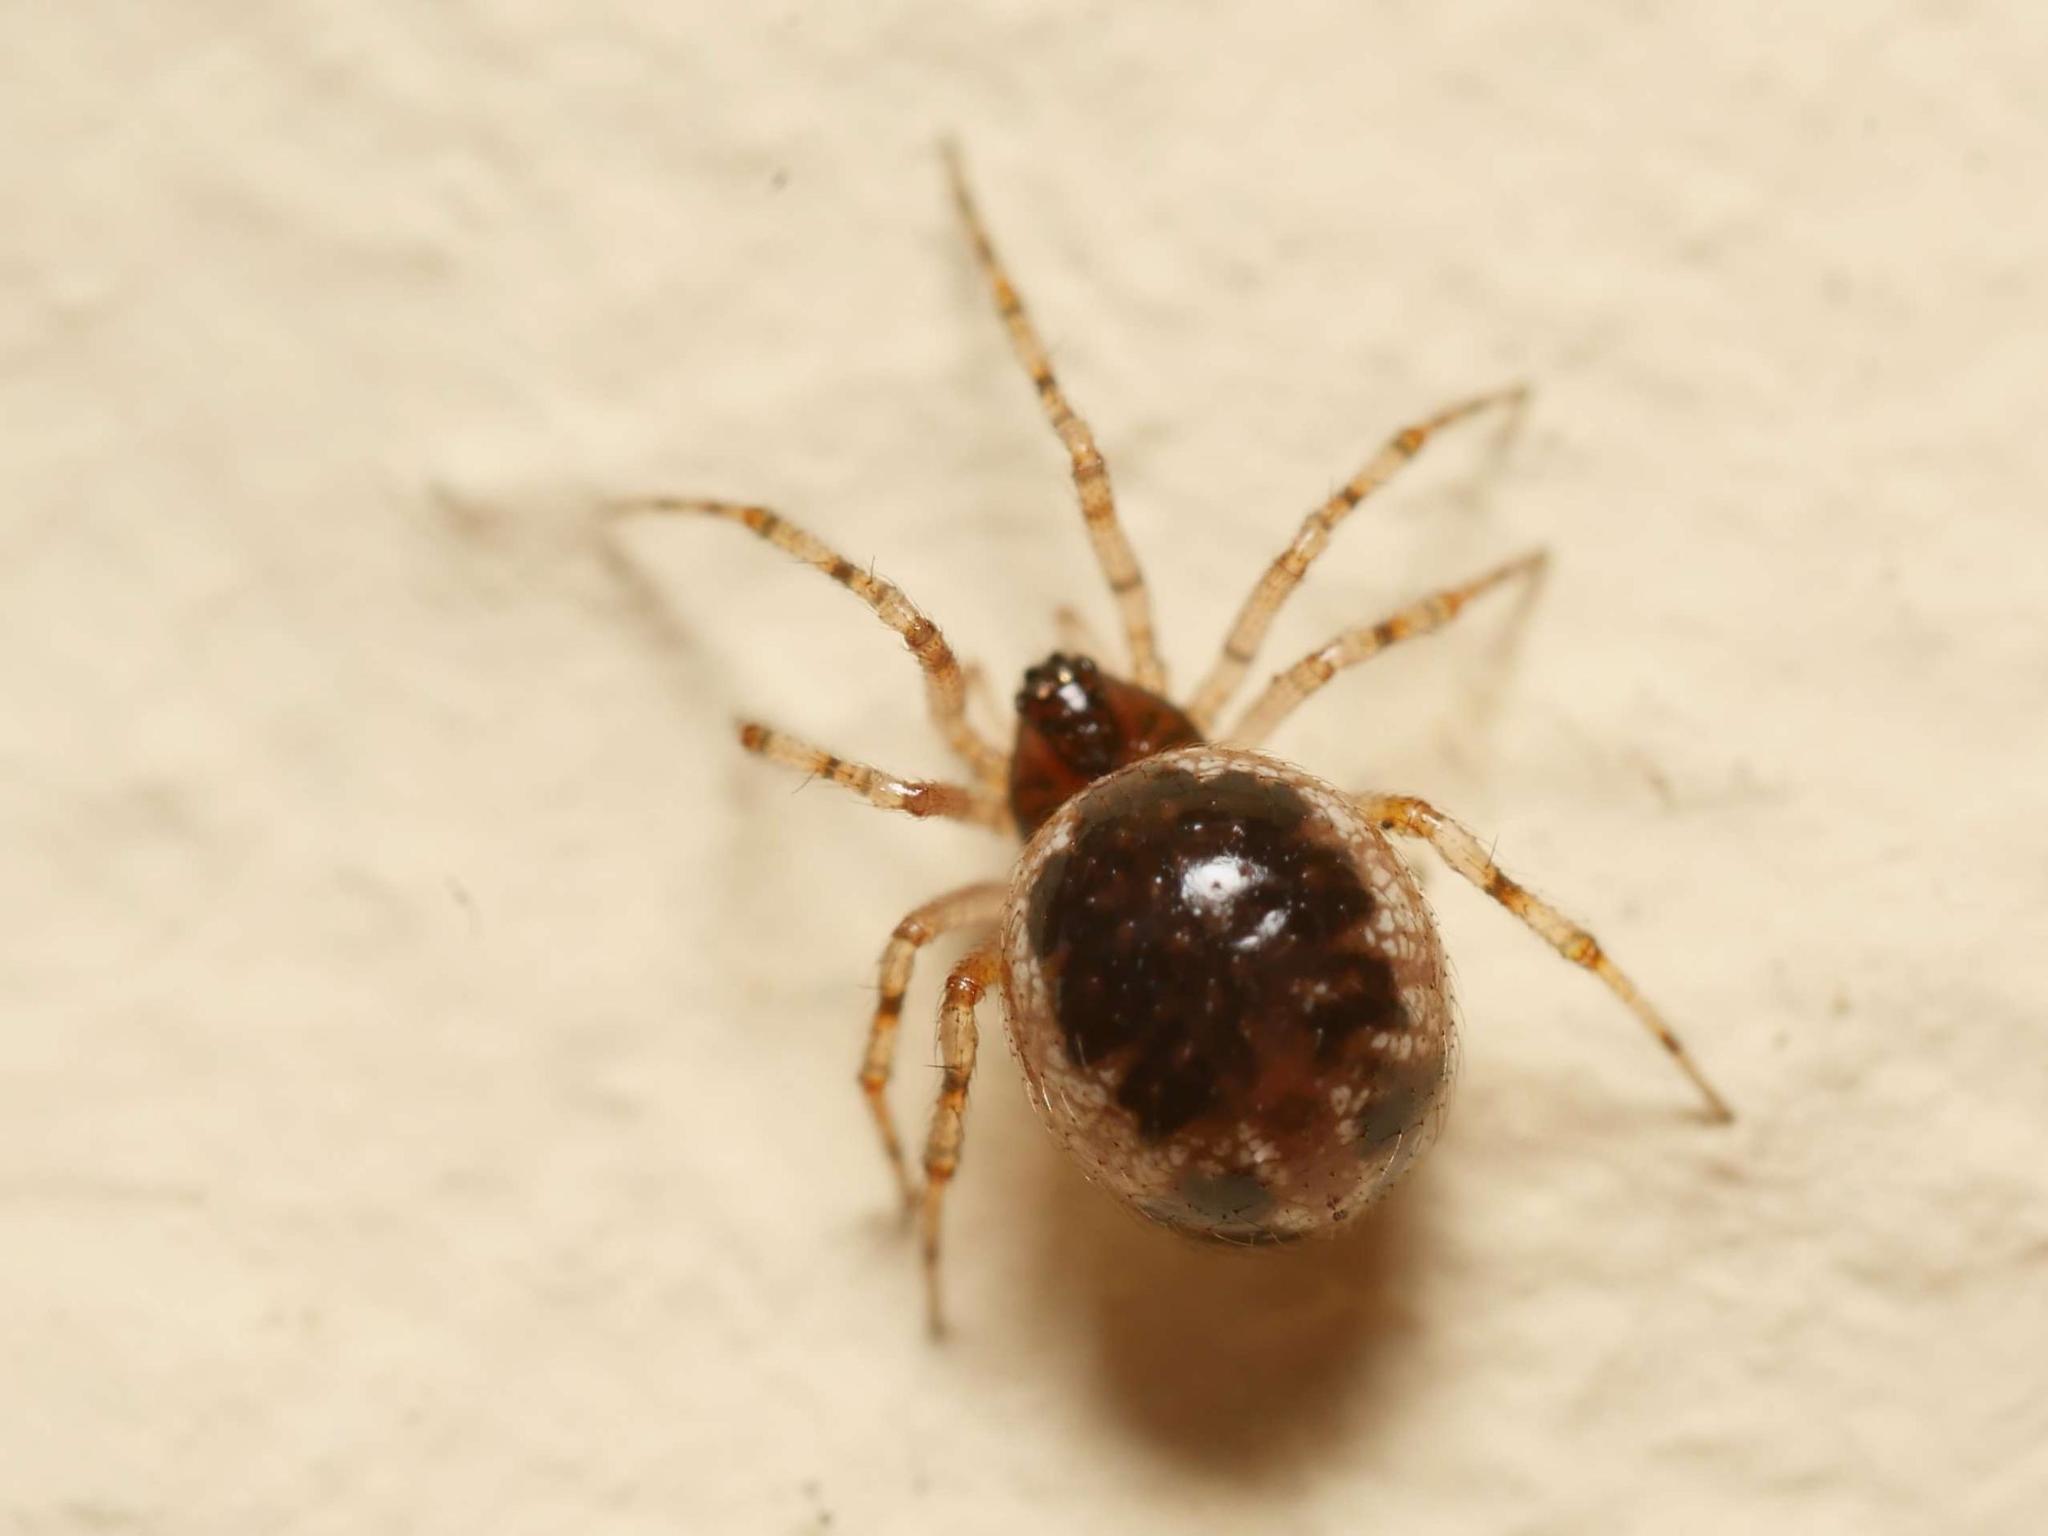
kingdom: Animalia
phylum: Arthropoda
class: Arachnida
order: Araneae
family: Theridiidae
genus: Sardinidion
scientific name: Sardinidion blackwalli
